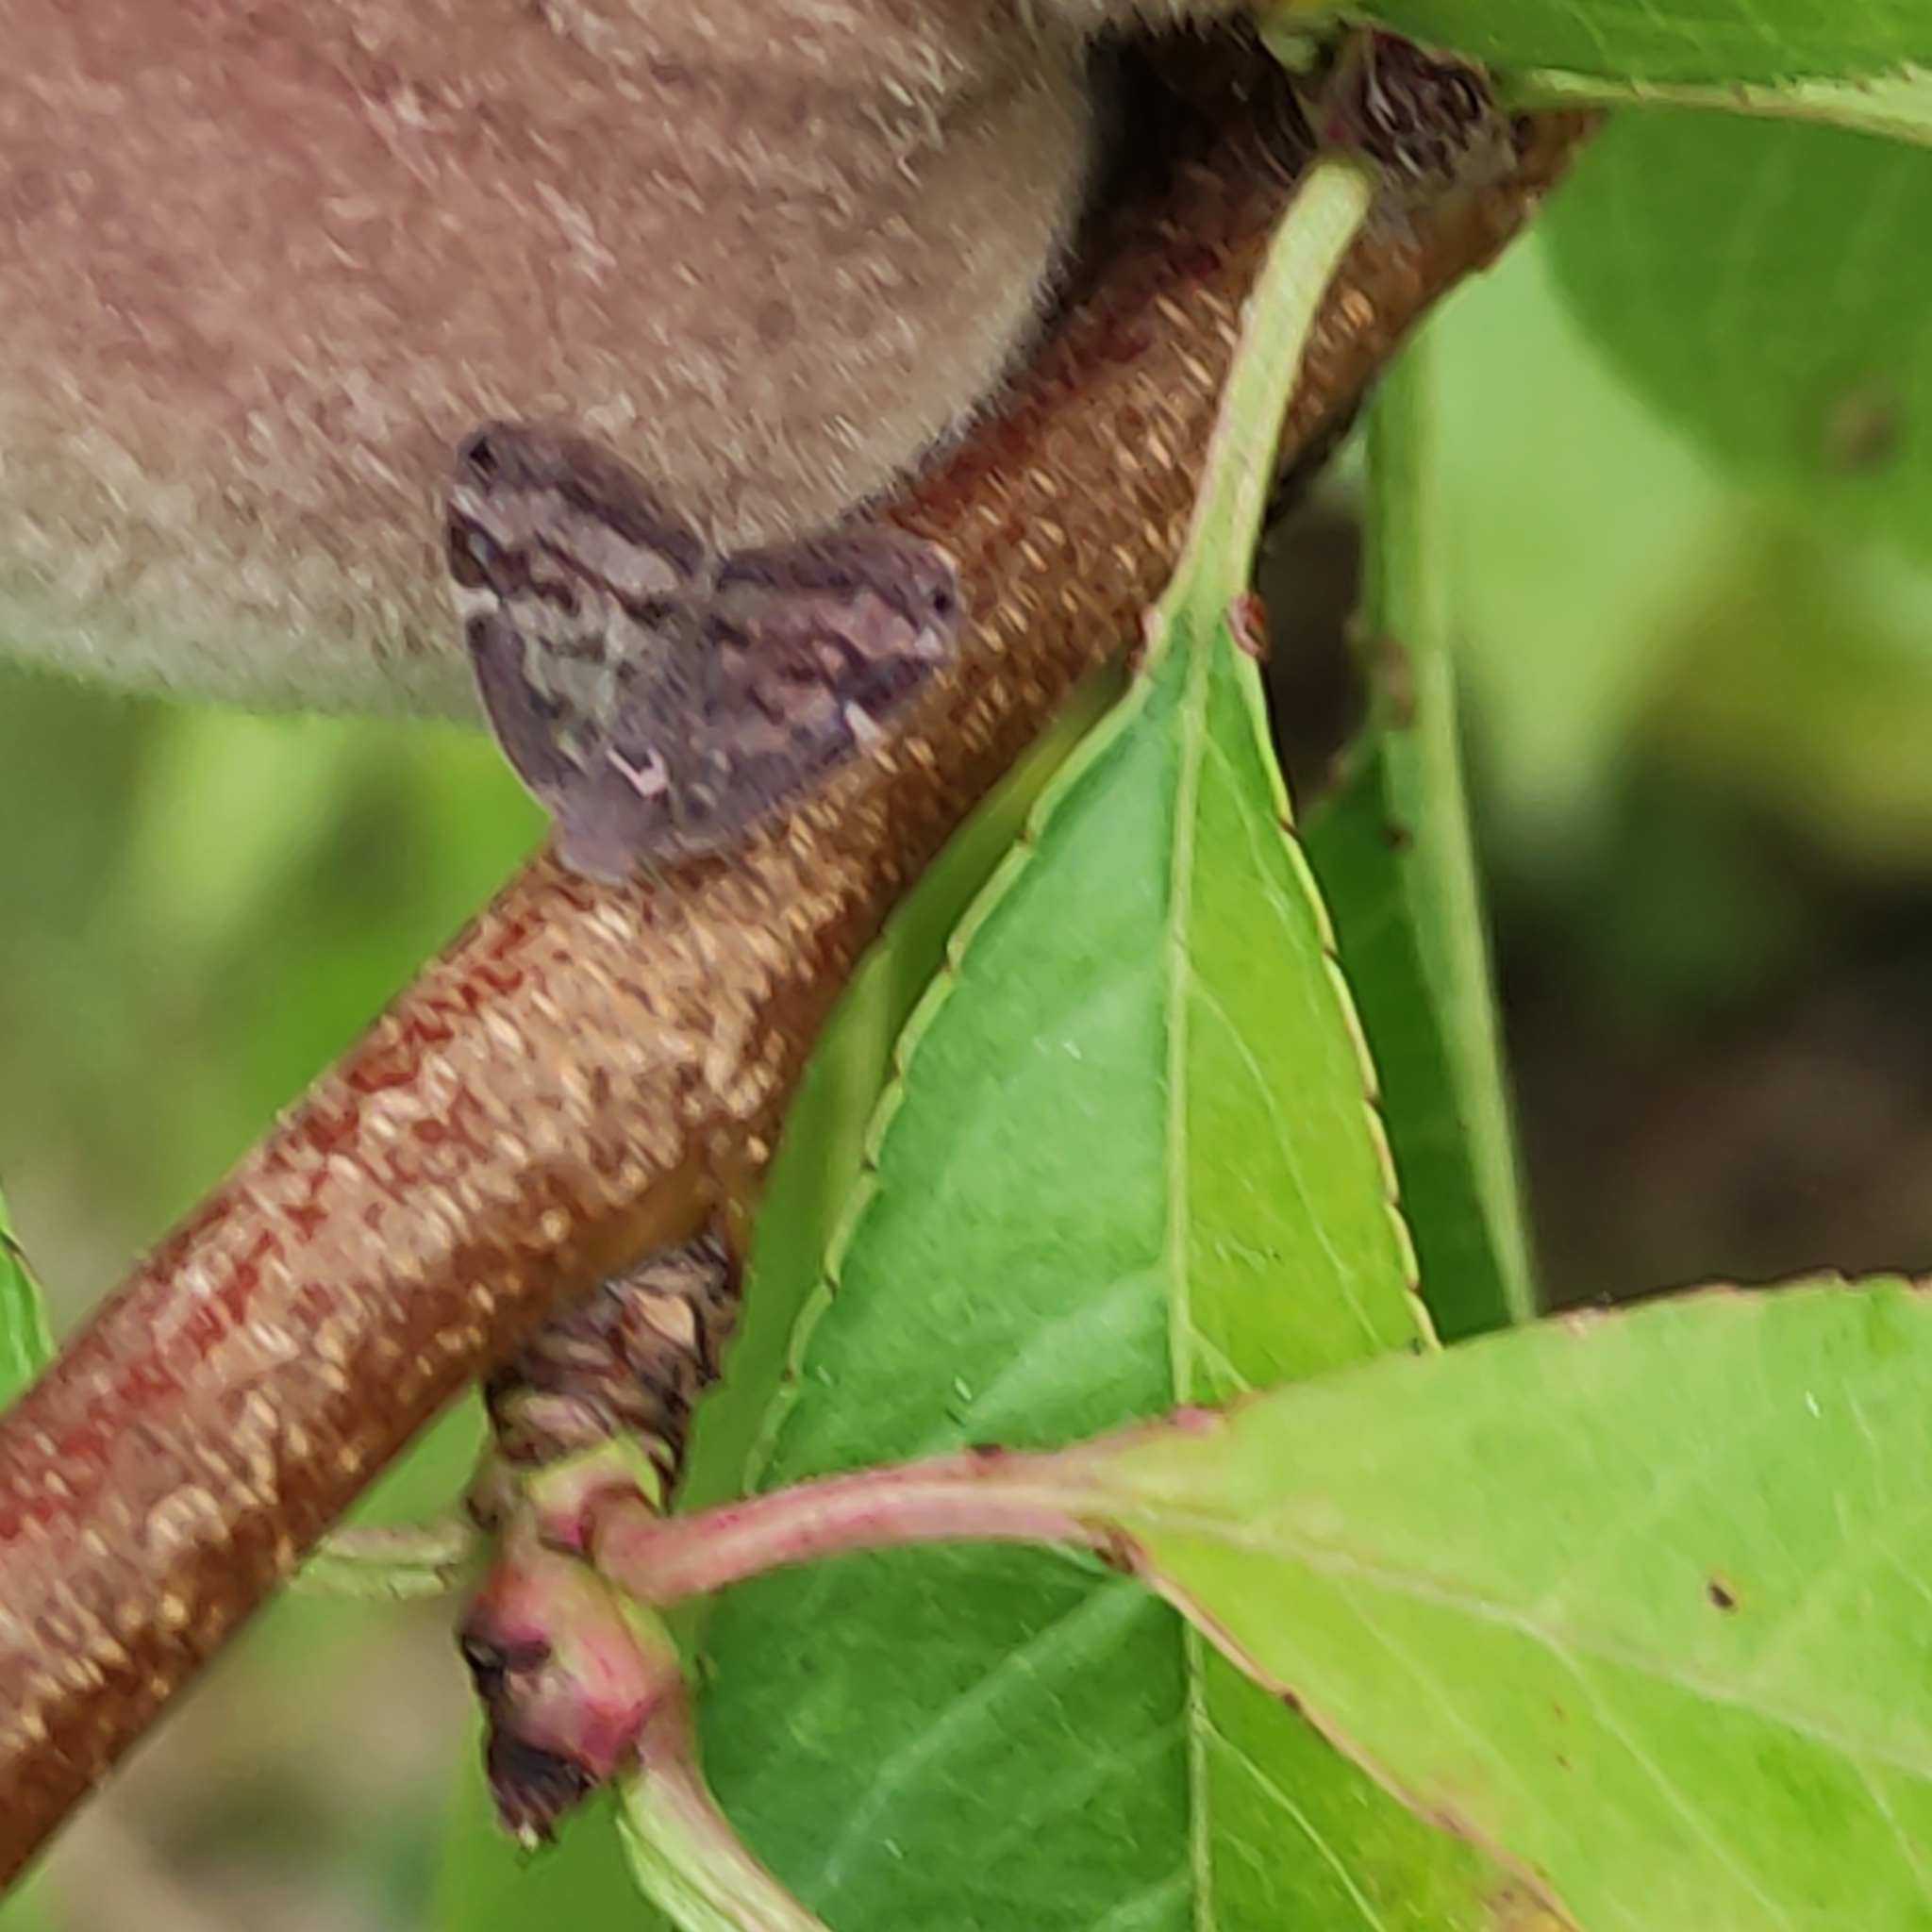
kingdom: Animalia
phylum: Arthropoda
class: Insecta
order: Hemiptera
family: Ricaniidae
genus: Scolypopa
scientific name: Scolypopa australis
